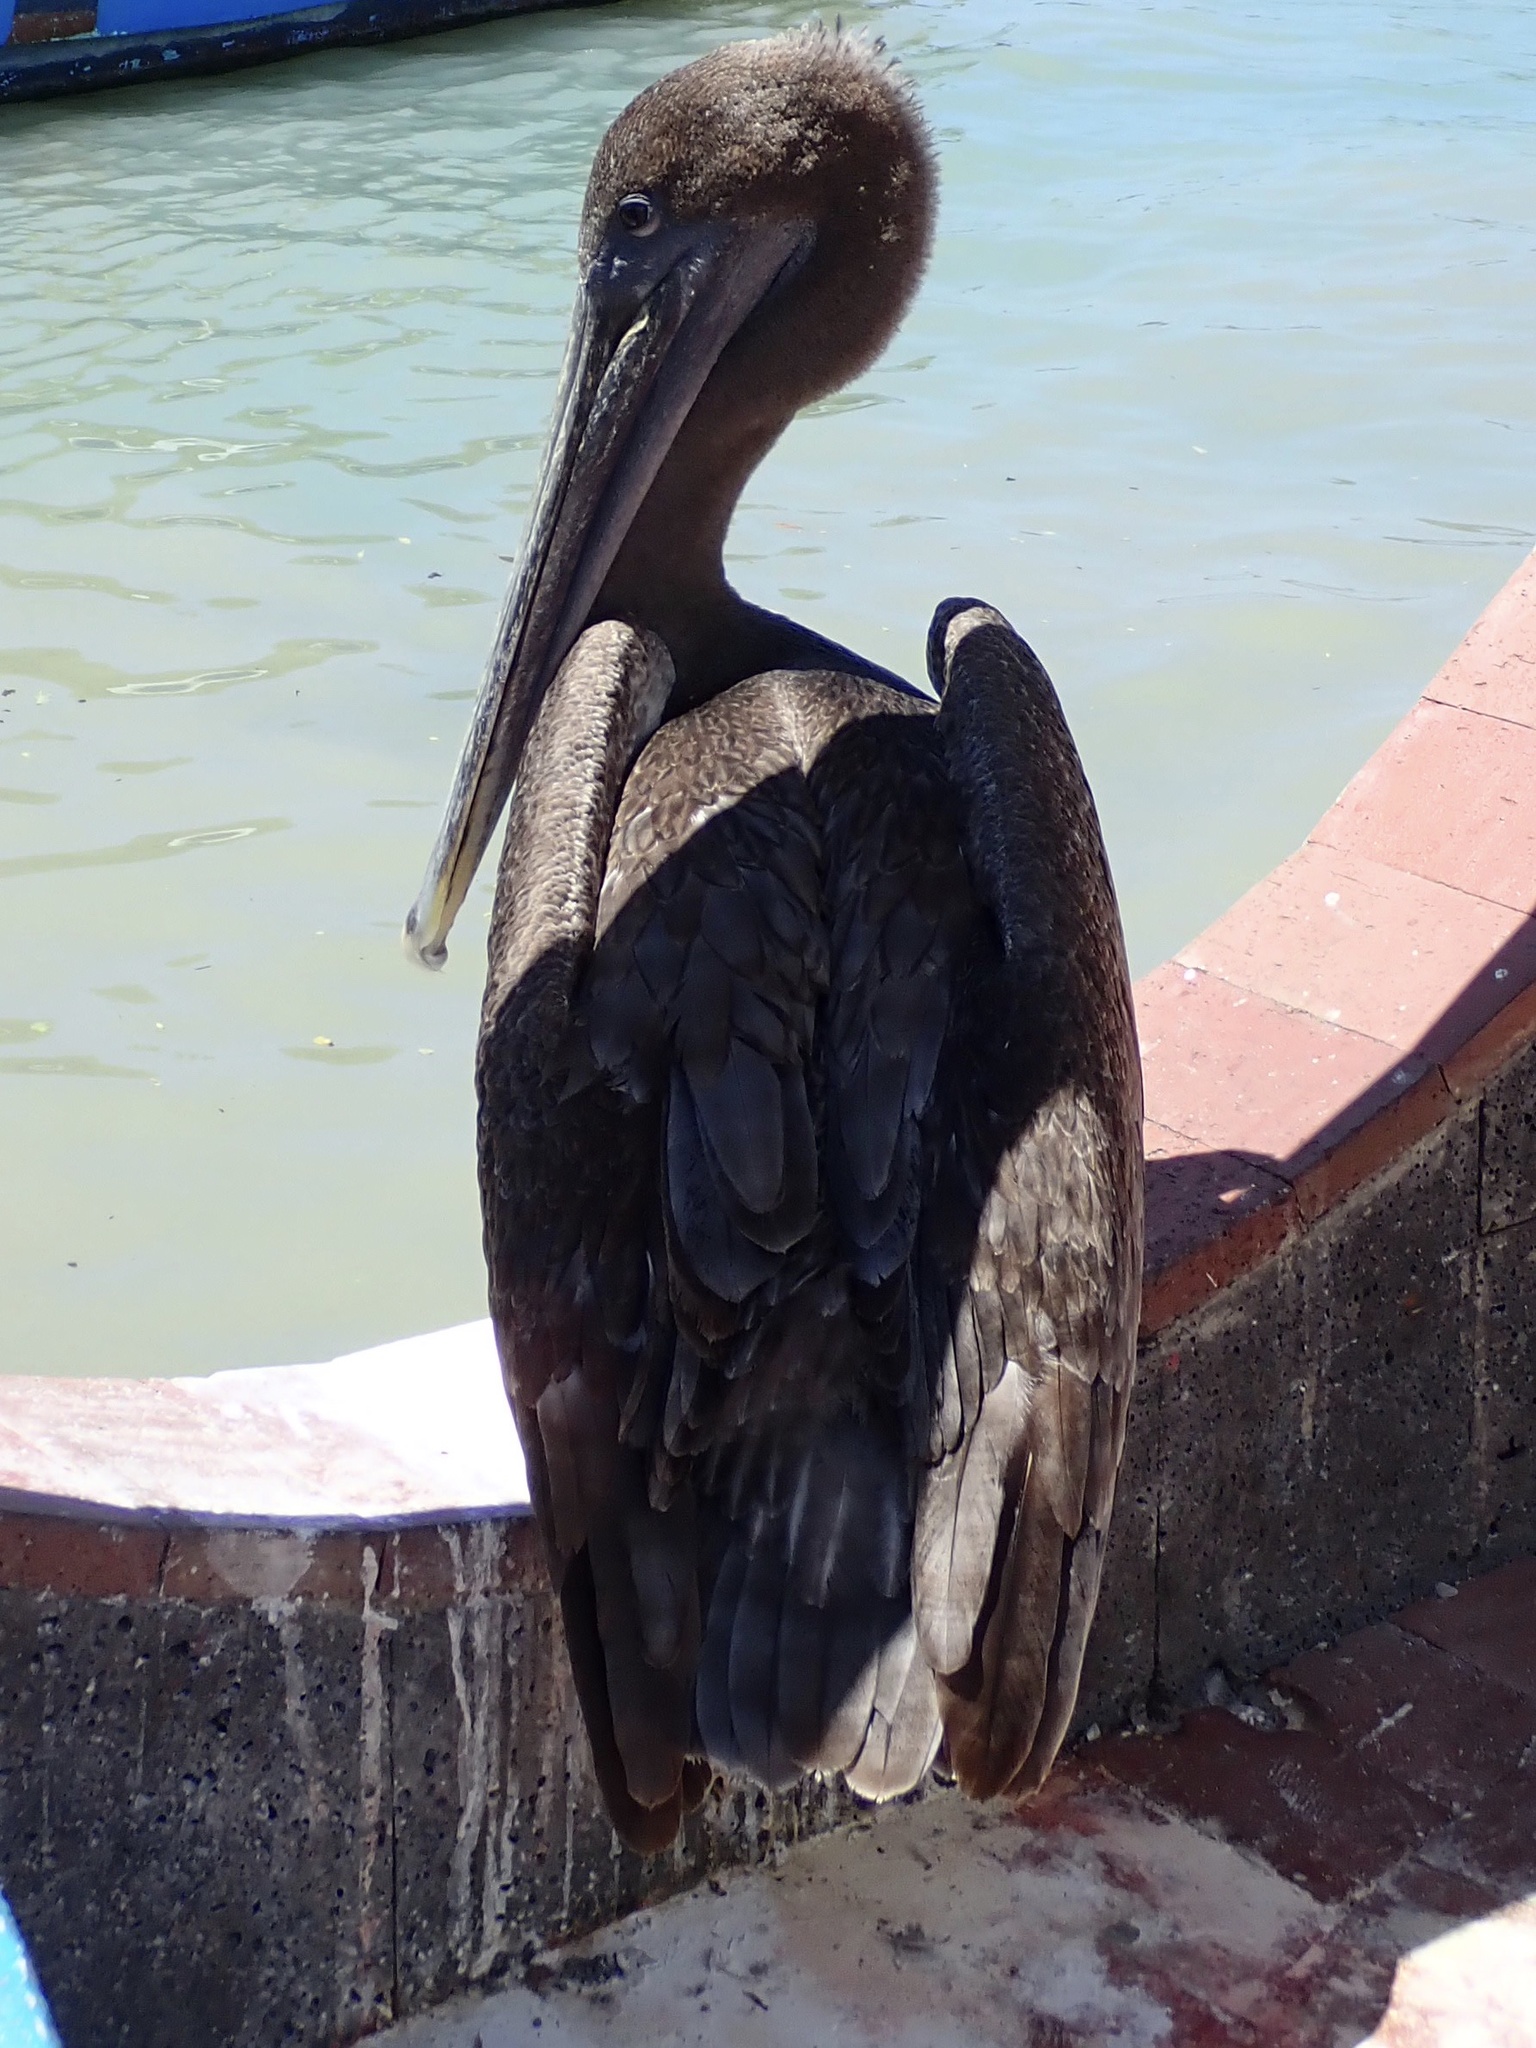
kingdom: Animalia
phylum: Chordata
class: Aves
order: Pelecaniformes
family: Pelecanidae
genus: Pelecanus
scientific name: Pelecanus occidentalis
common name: Brown pelican
